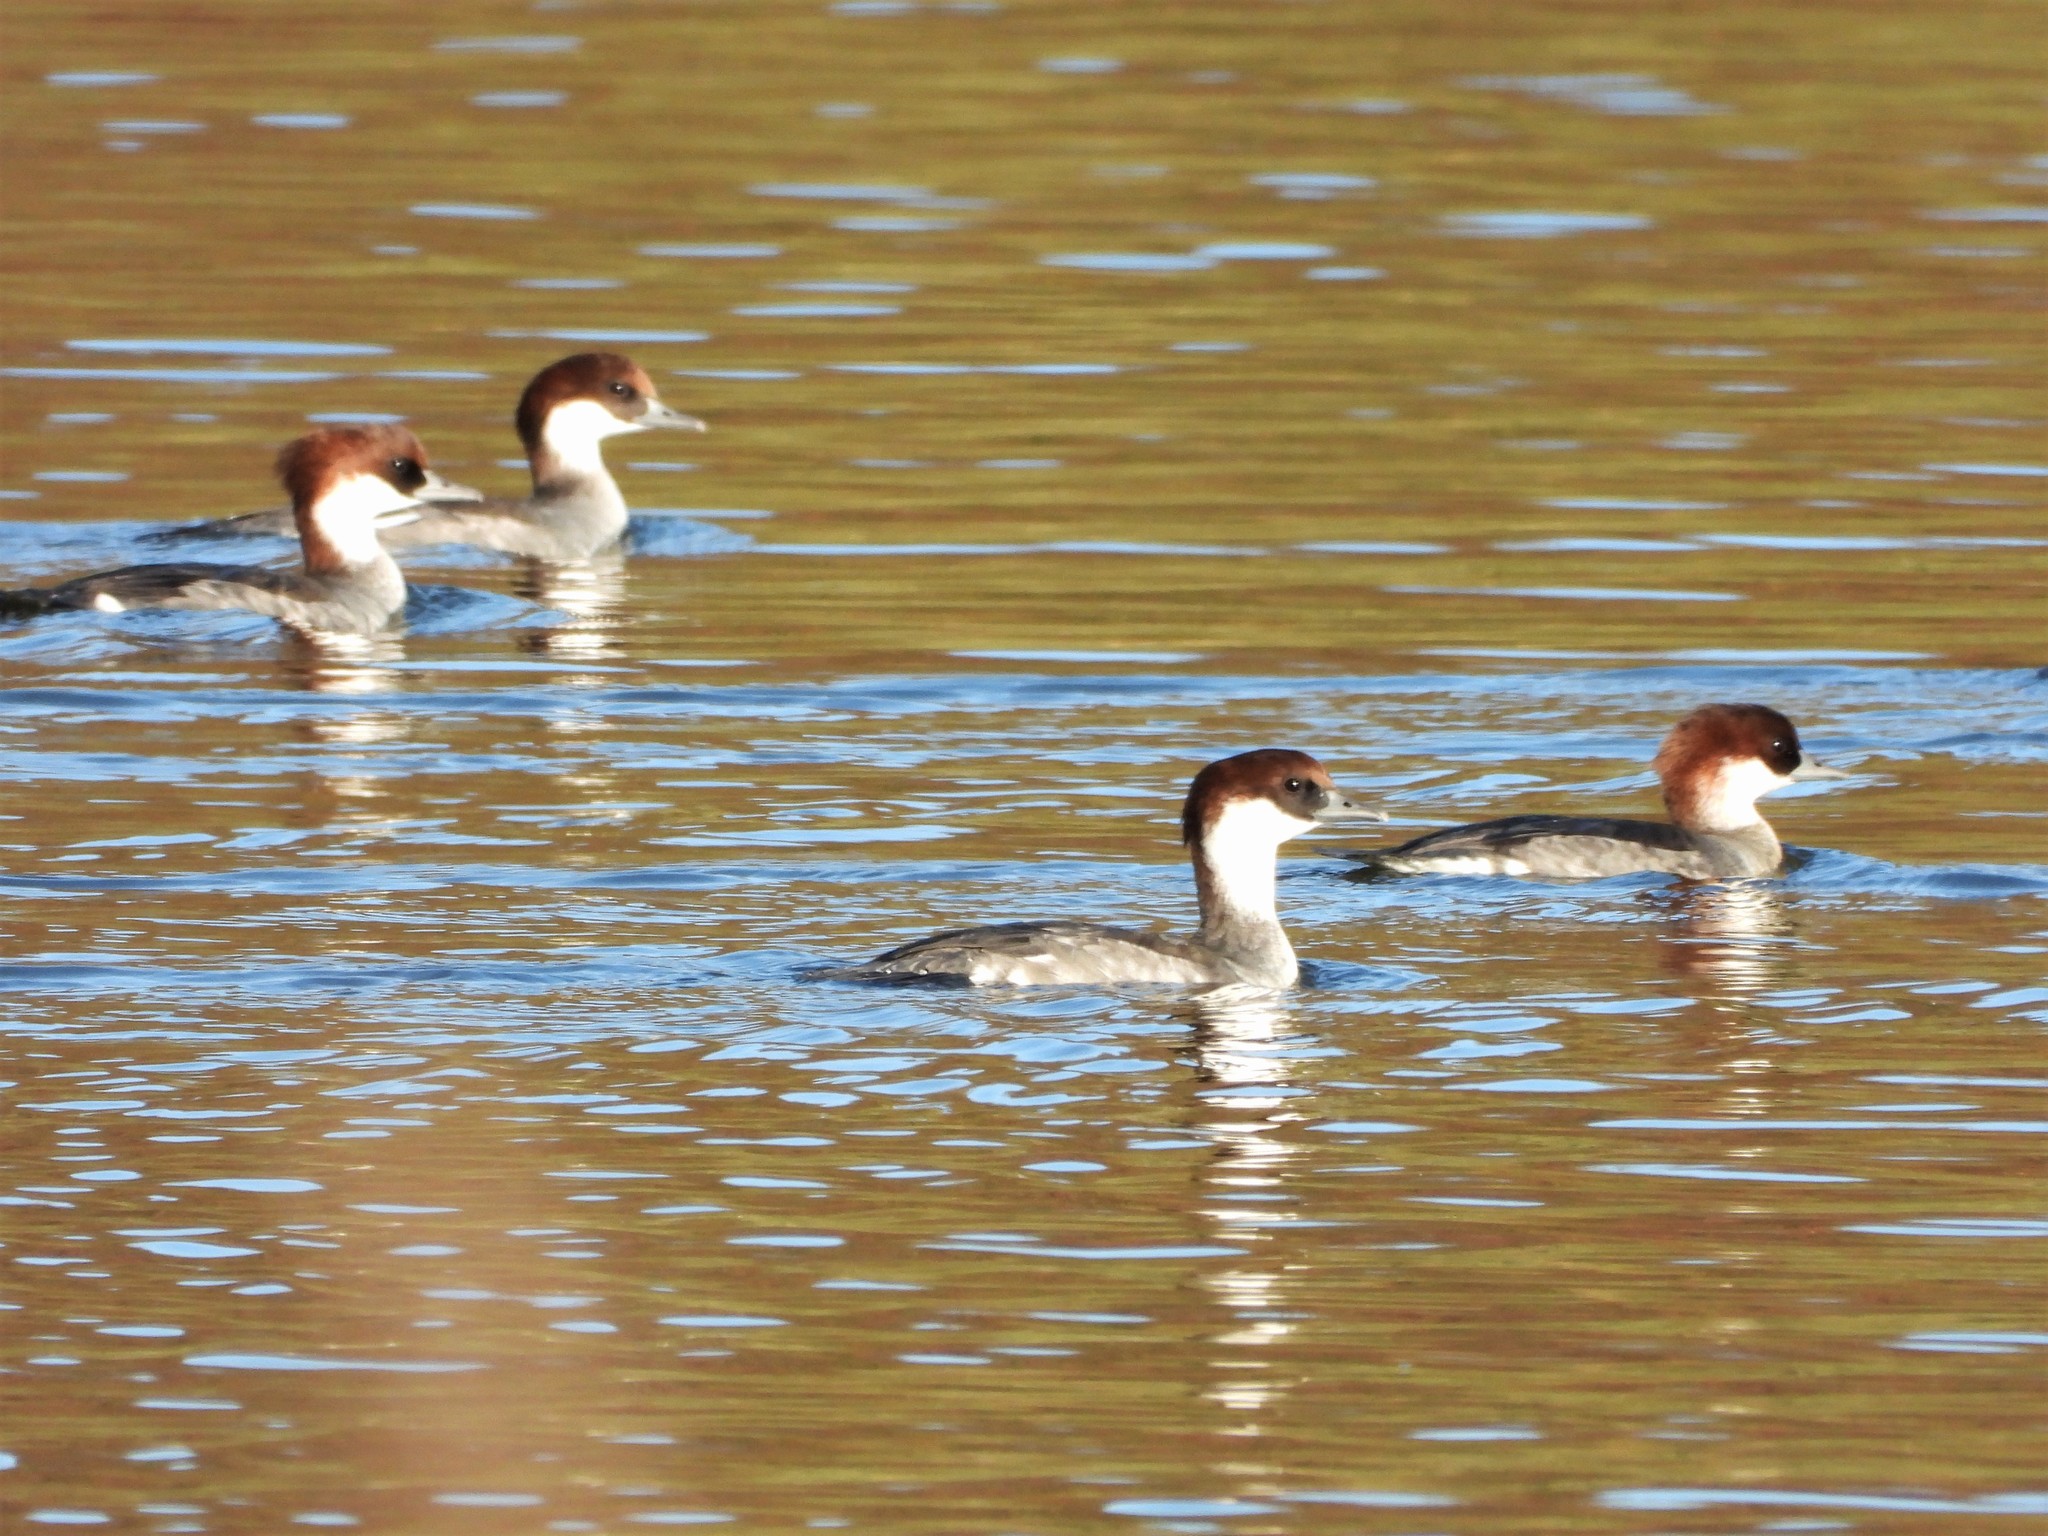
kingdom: Animalia
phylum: Chordata
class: Aves
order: Anseriformes
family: Anatidae
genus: Mergellus
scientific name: Mergellus albellus
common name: Smew
